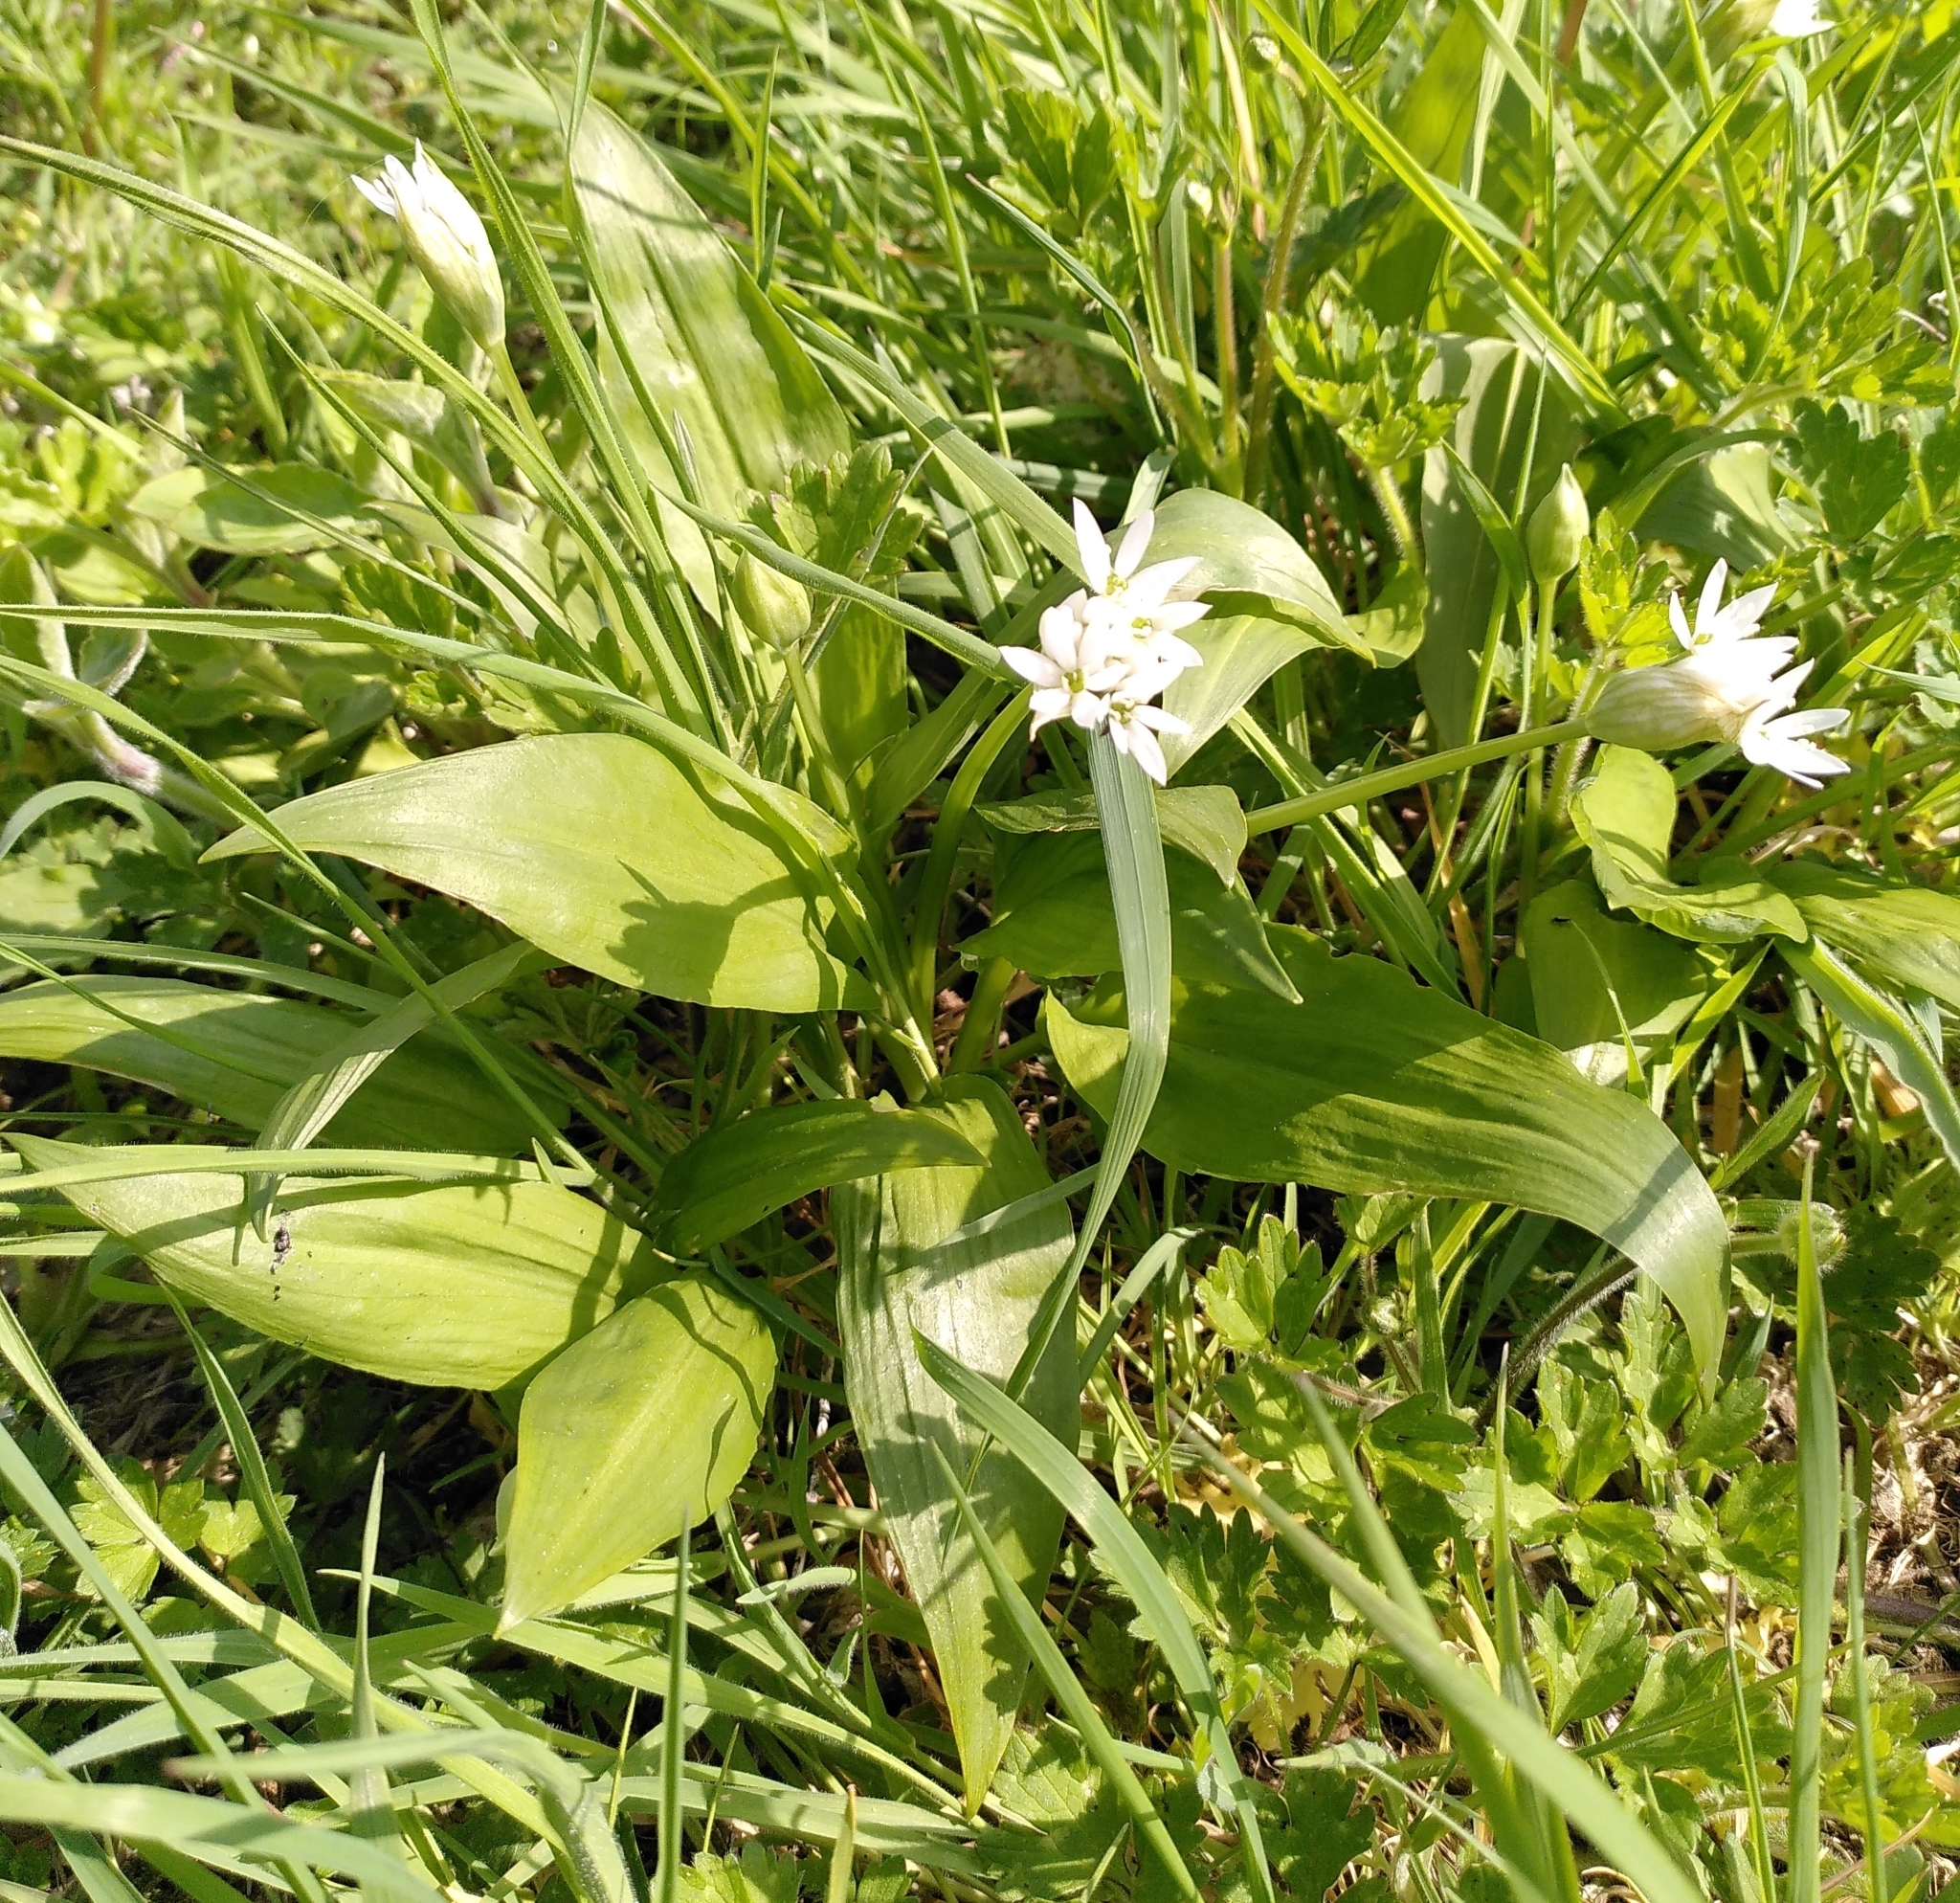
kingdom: Plantae
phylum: Tracheophyta
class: Liliopsida
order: Asparagales
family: Amaryllidaceae
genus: Allium
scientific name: Allium ursinum
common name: Ramsons
